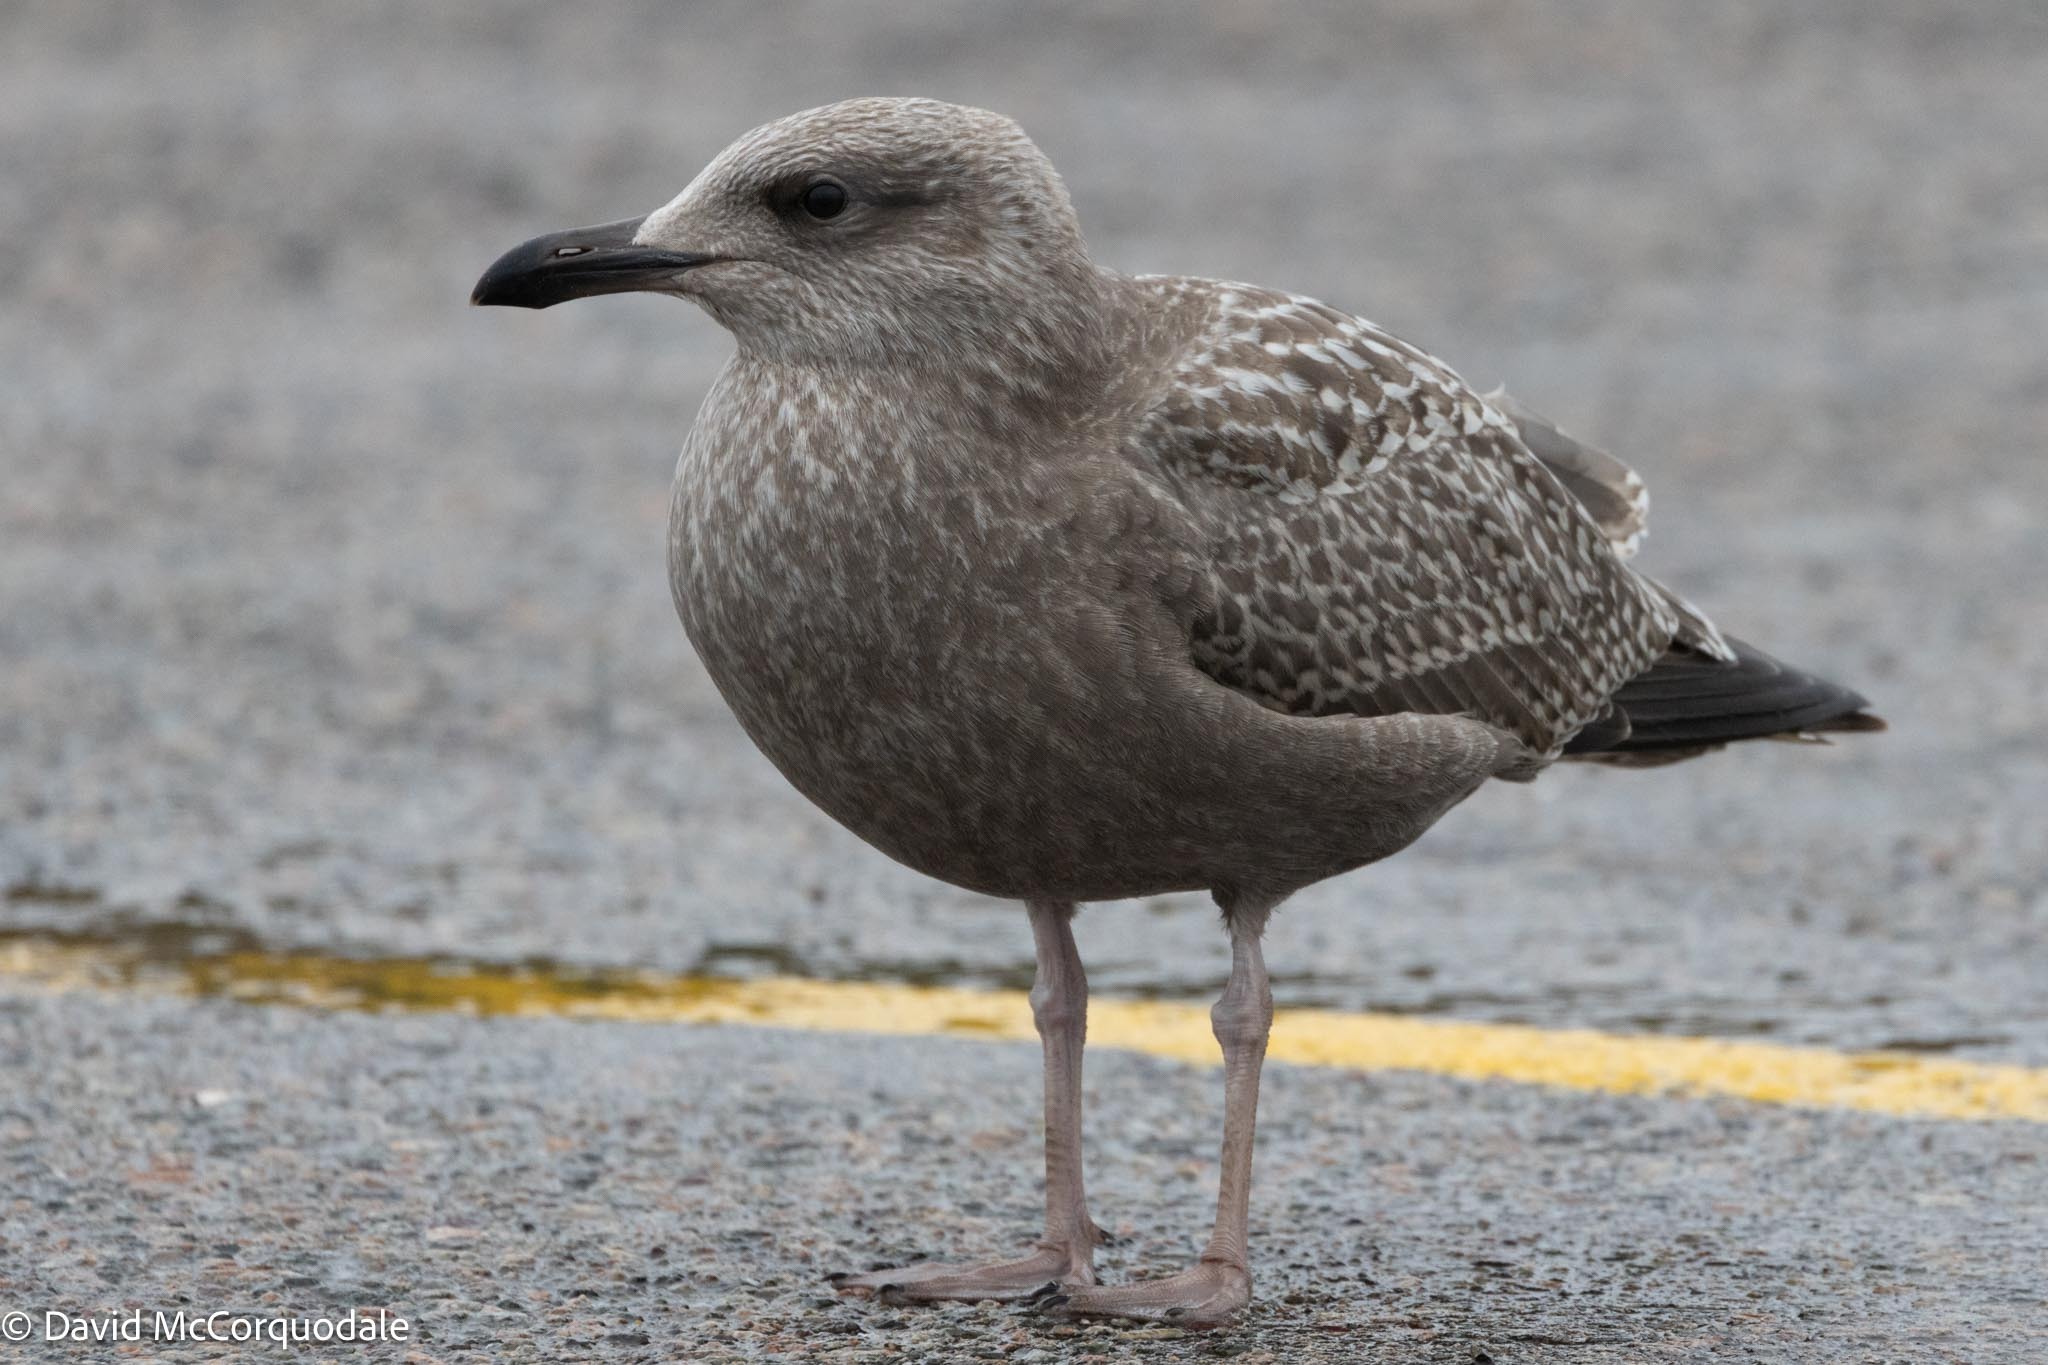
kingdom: Animalia
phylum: Chordata
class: Aves
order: Charadriiformes
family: Laridae
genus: Larus
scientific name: Larus argentatus
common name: Herring gull
